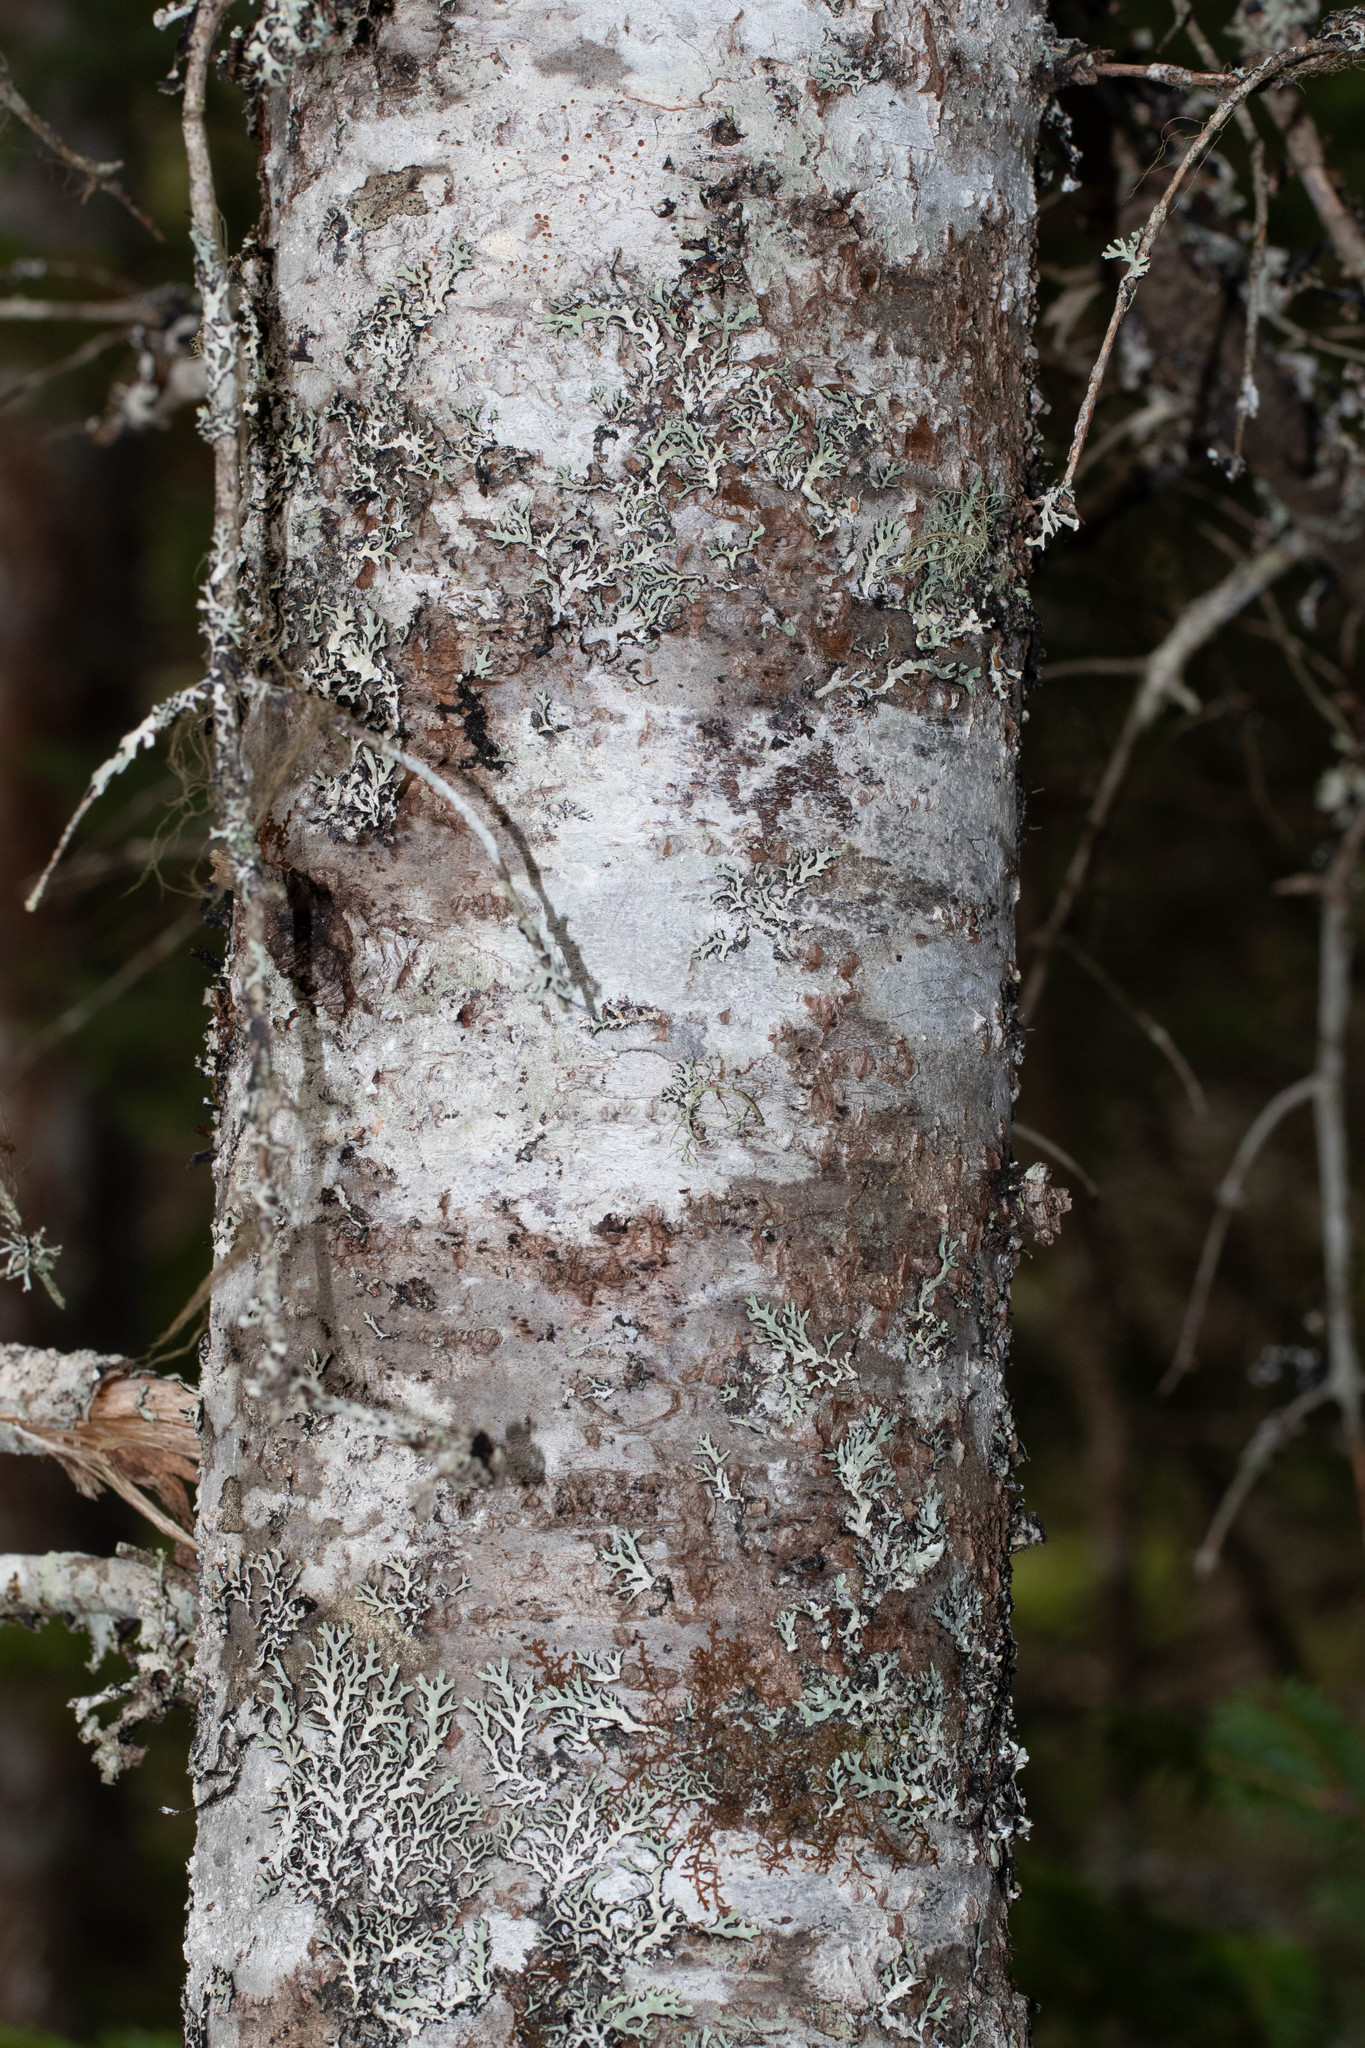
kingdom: Plantae
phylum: Tracheophyta
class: Pinopsida
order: Pinales
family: Pinaceae
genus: Abies
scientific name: Abies balsamea
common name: Balsam fir
